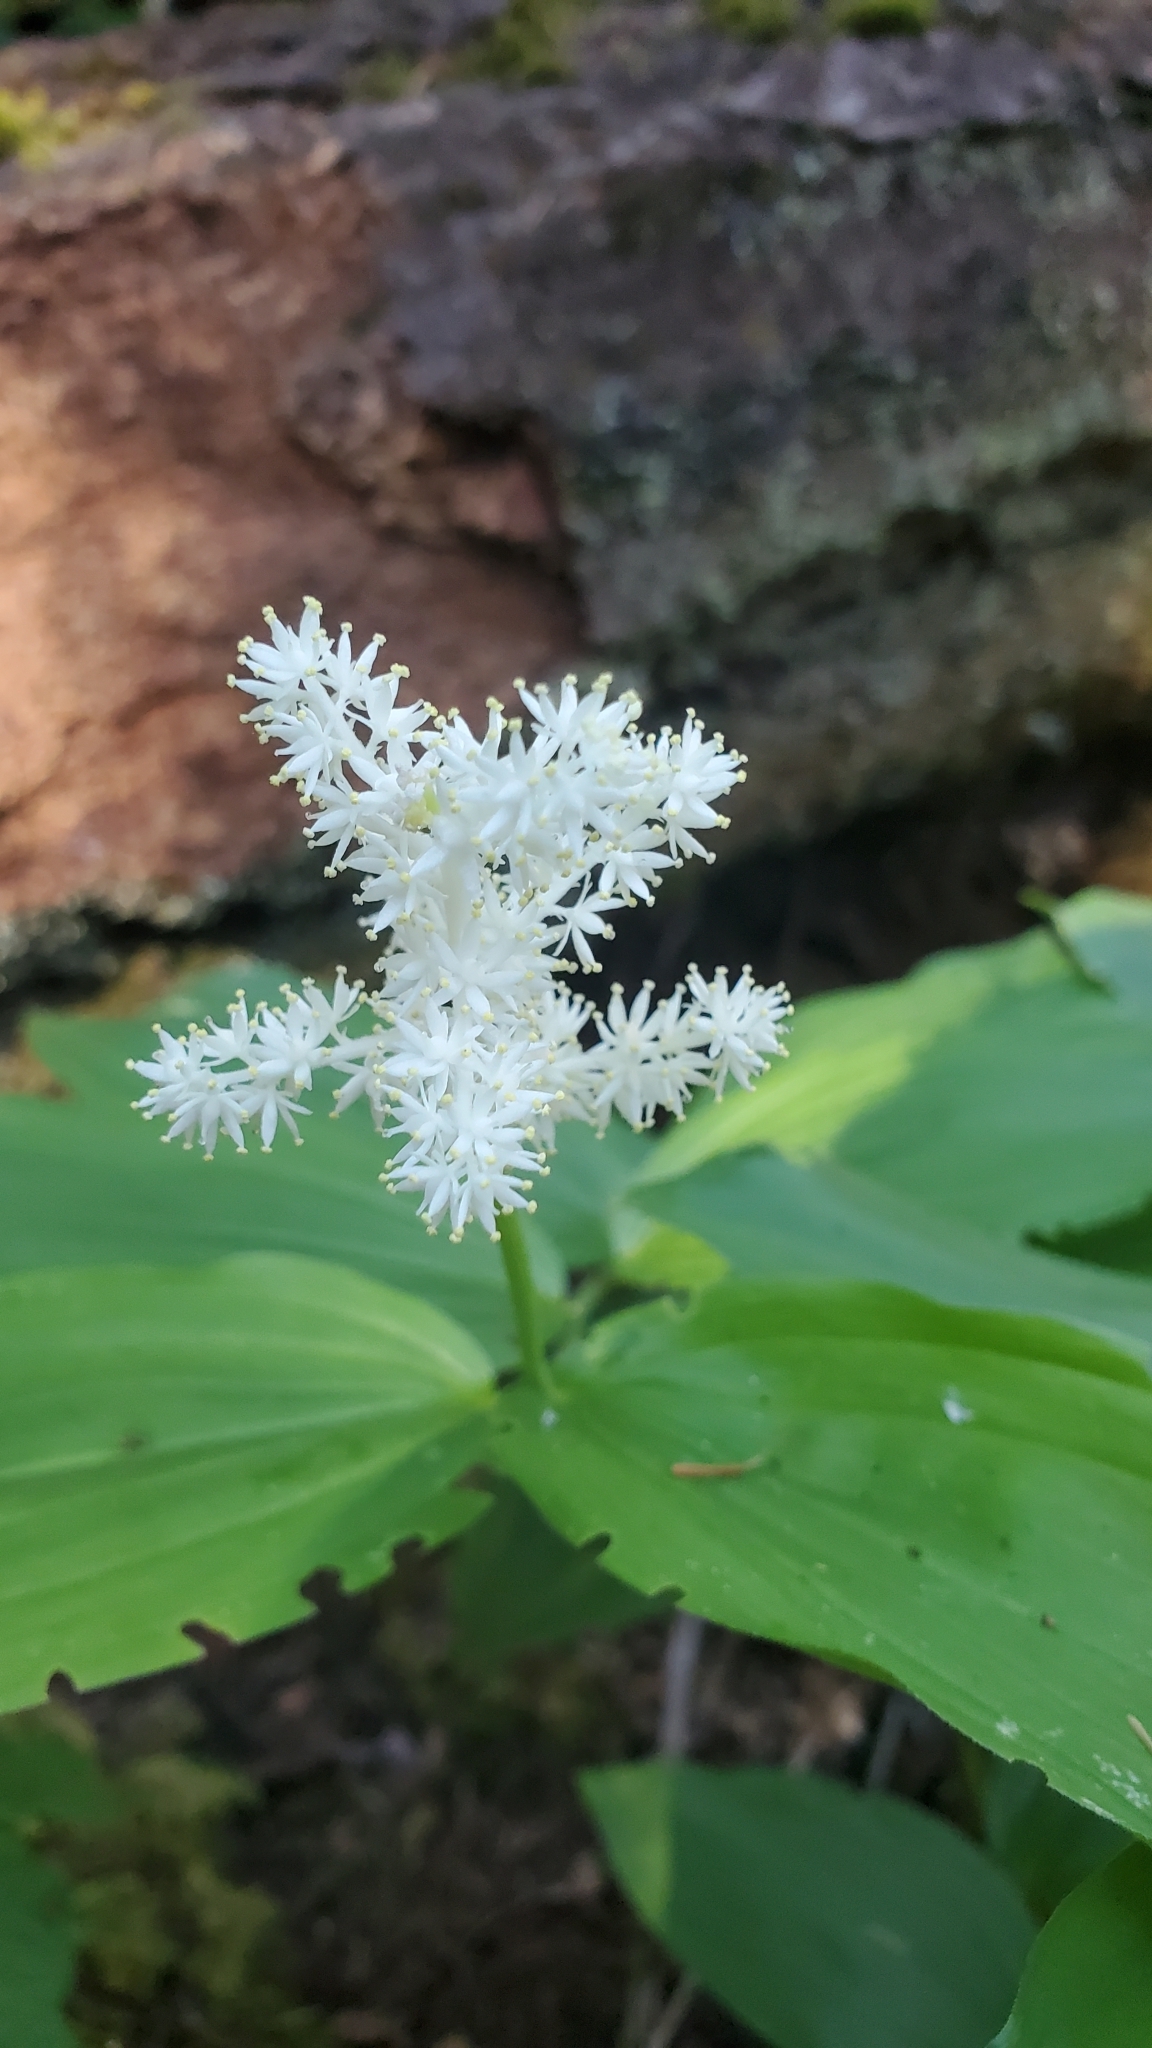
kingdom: Plantae
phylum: Tracheophyta
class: Liliopsida
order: Asparagales
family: Asparagaceae
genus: Maianthemum
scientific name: Maianthemum racemosum
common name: False spikenard
